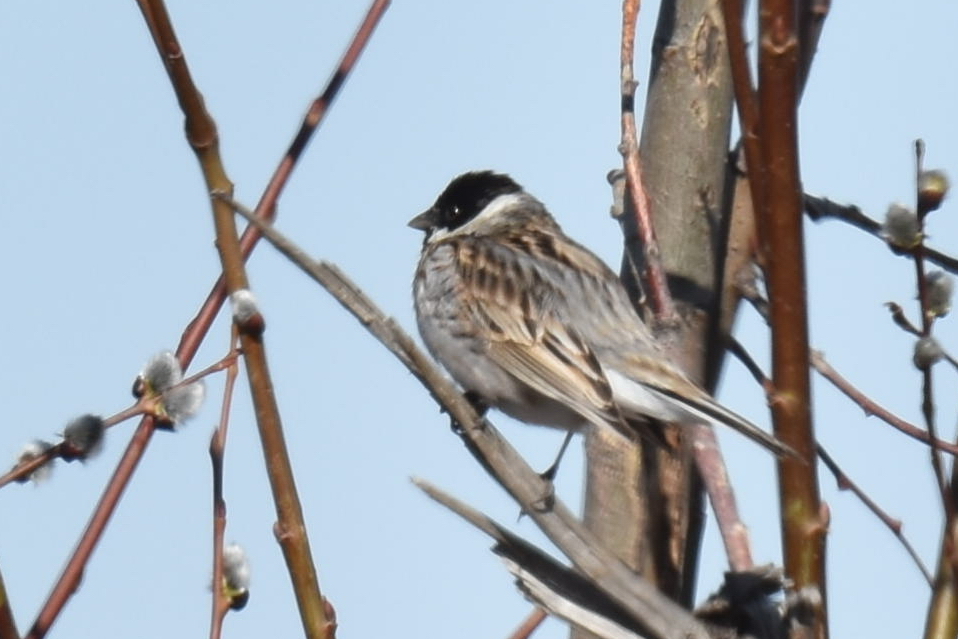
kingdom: Animalia
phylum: Chordata
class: Aves
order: Passeriformes
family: Emberizidae
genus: Emberiza
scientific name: Emberiza schoeniclus
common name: Reed bunting
